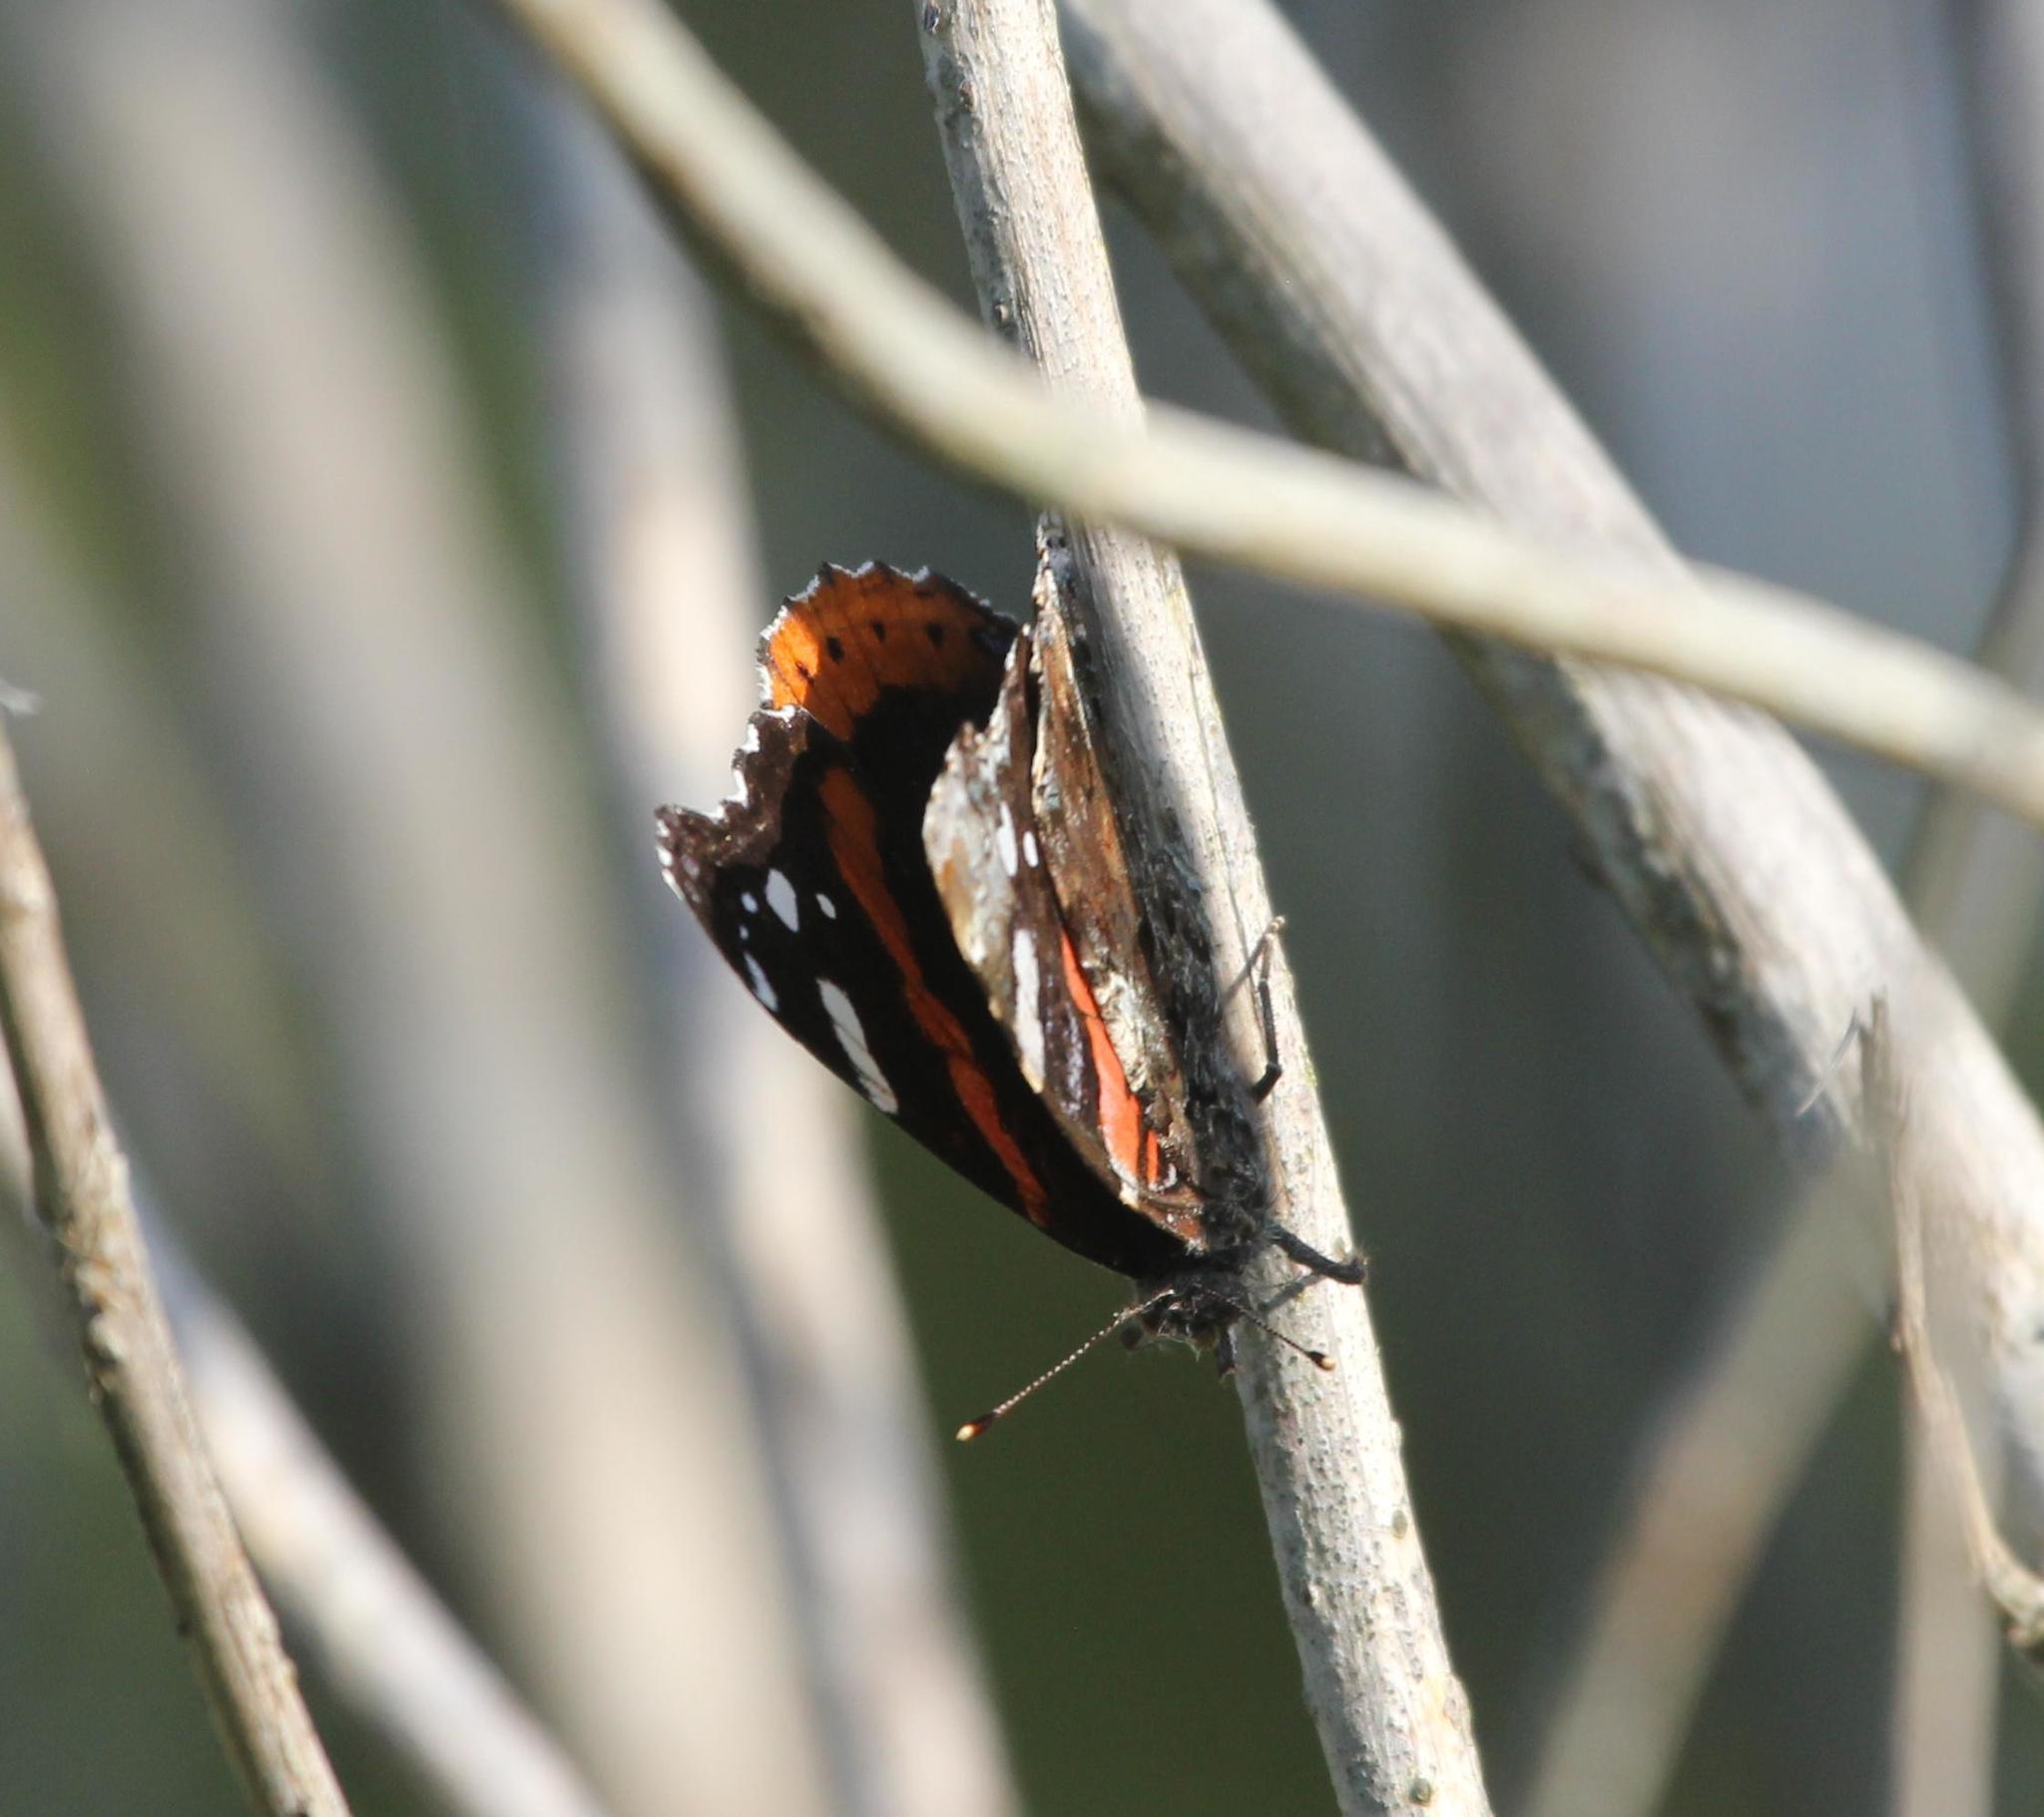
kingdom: Animalia
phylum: Arthropoda
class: Insecta
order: Lepidoptera
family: Nymphalidae
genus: Vanessa
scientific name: Vanessa atalanta
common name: Red admiral
